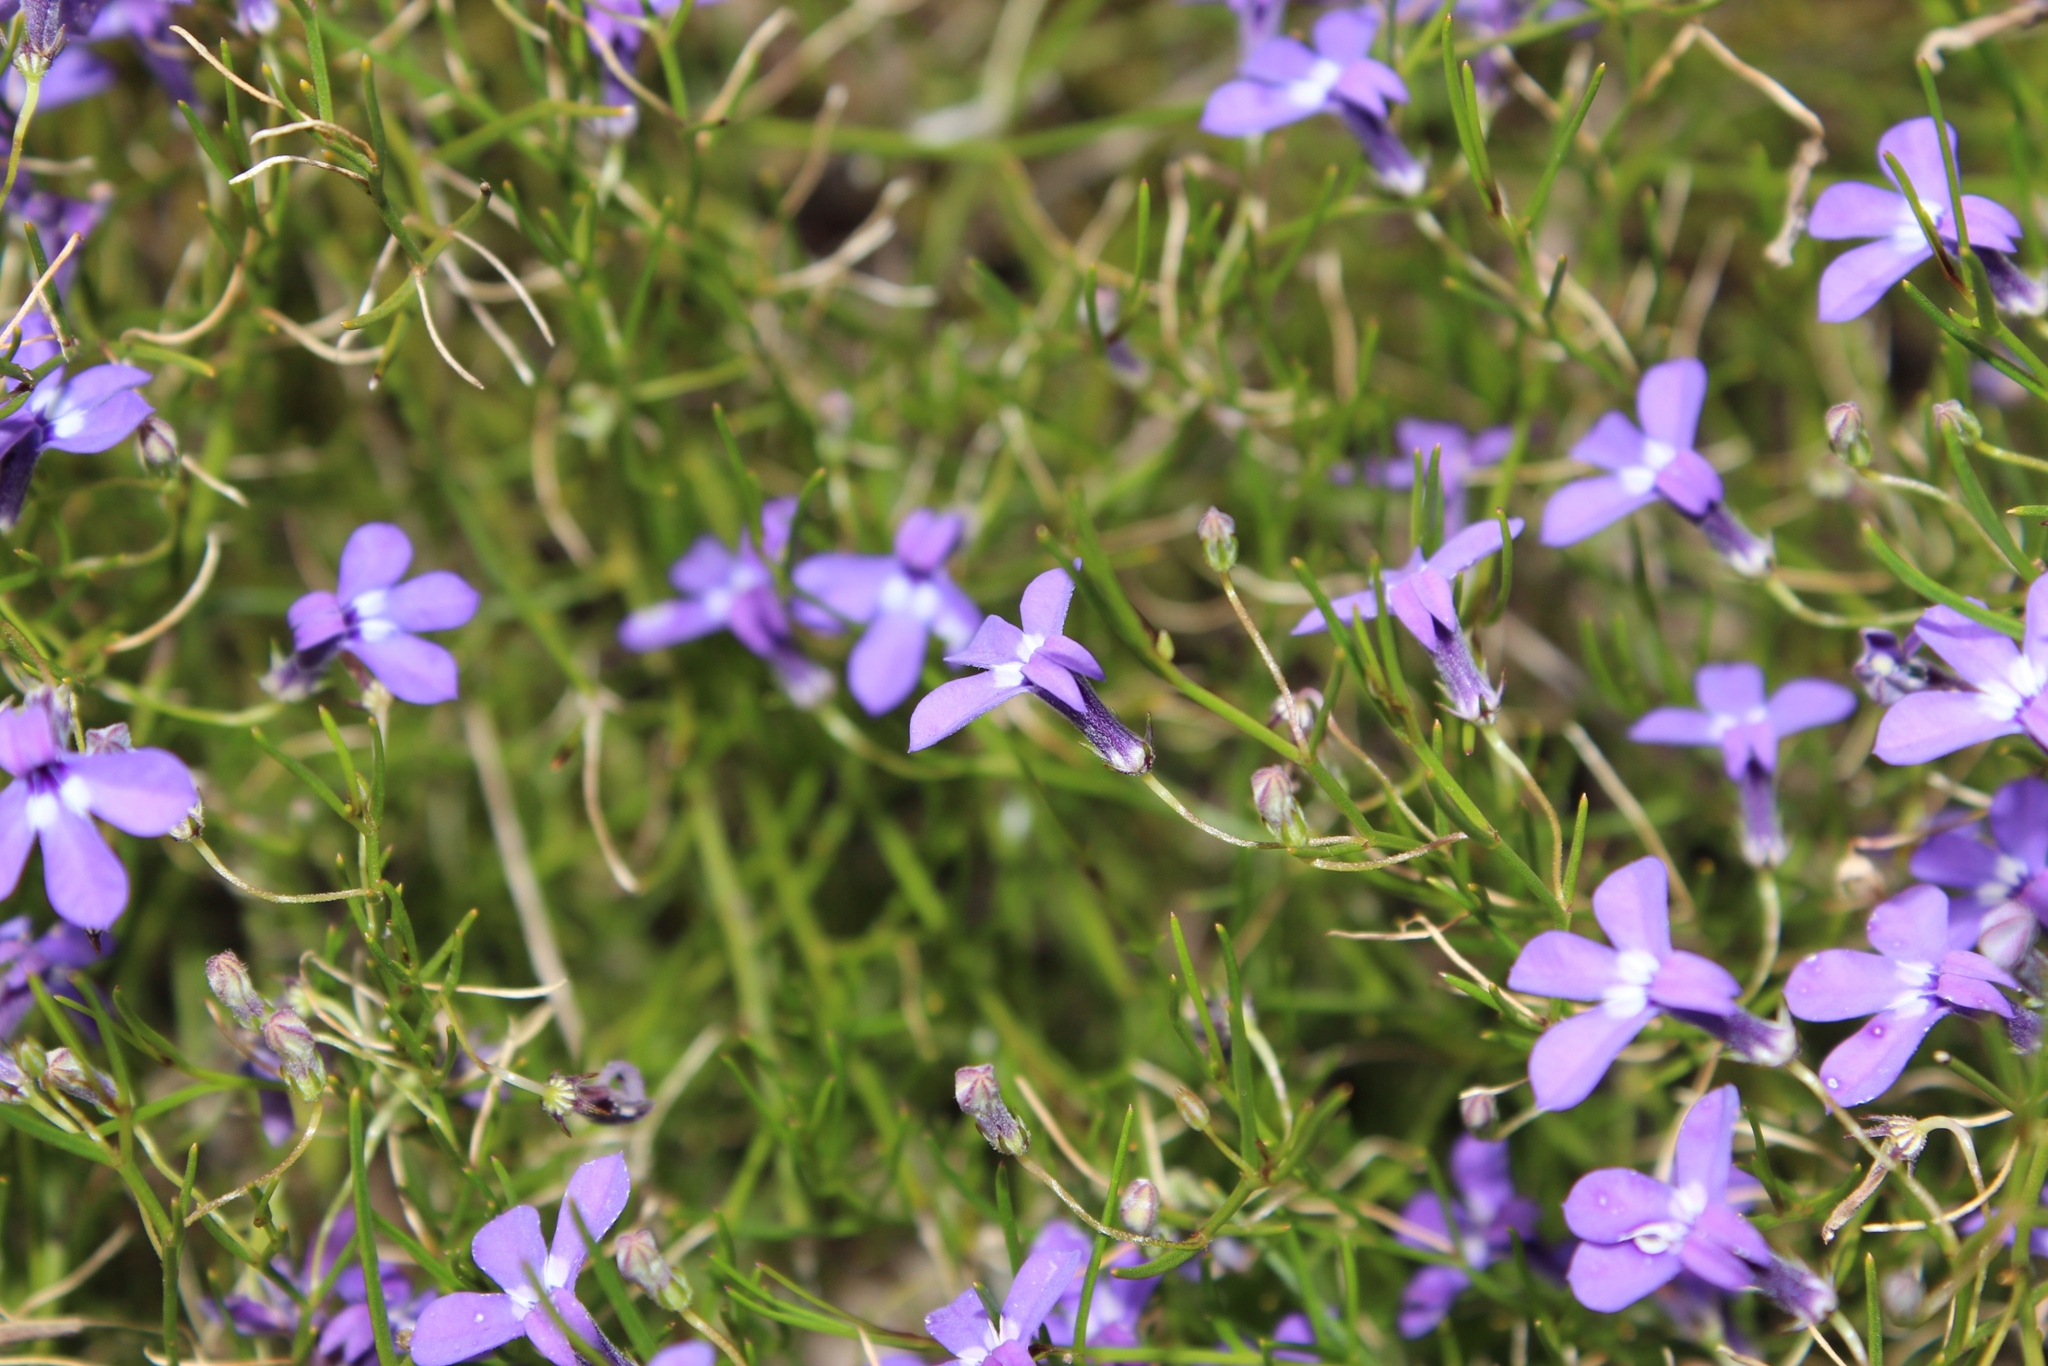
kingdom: Plantae
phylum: Tracheophyta
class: Magnoliopsida
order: Asterales
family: Campanulaceae
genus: Lobelia
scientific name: Lobelia setacea
